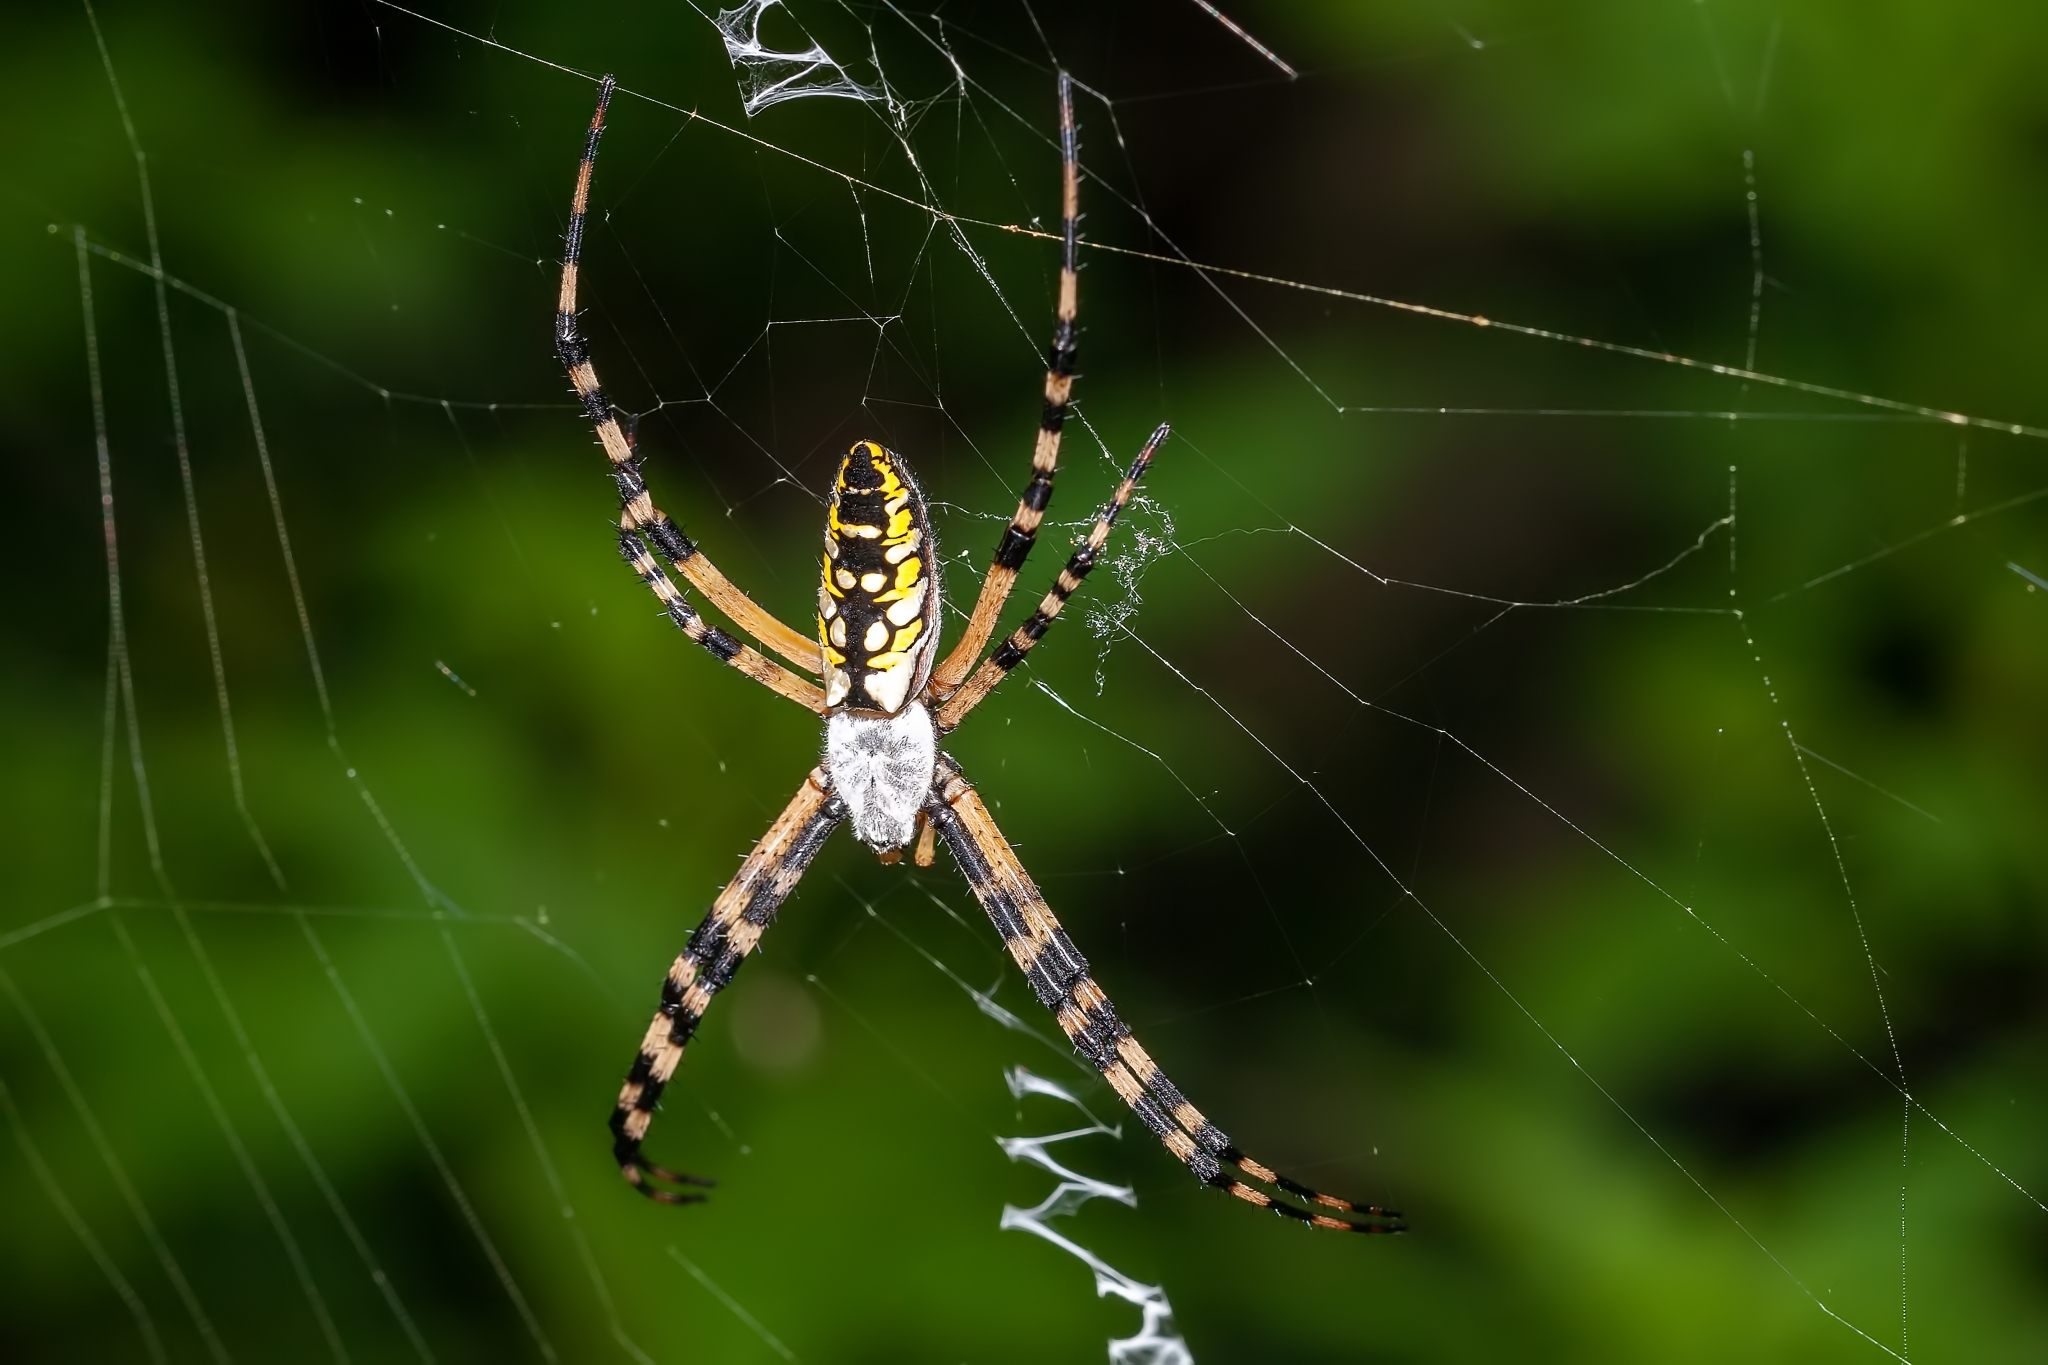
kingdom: Animalia
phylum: Arthropoda
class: Arachnida
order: Araneae
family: Araneidae
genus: Argiope
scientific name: Argiope aurantia
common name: Orb weavers
